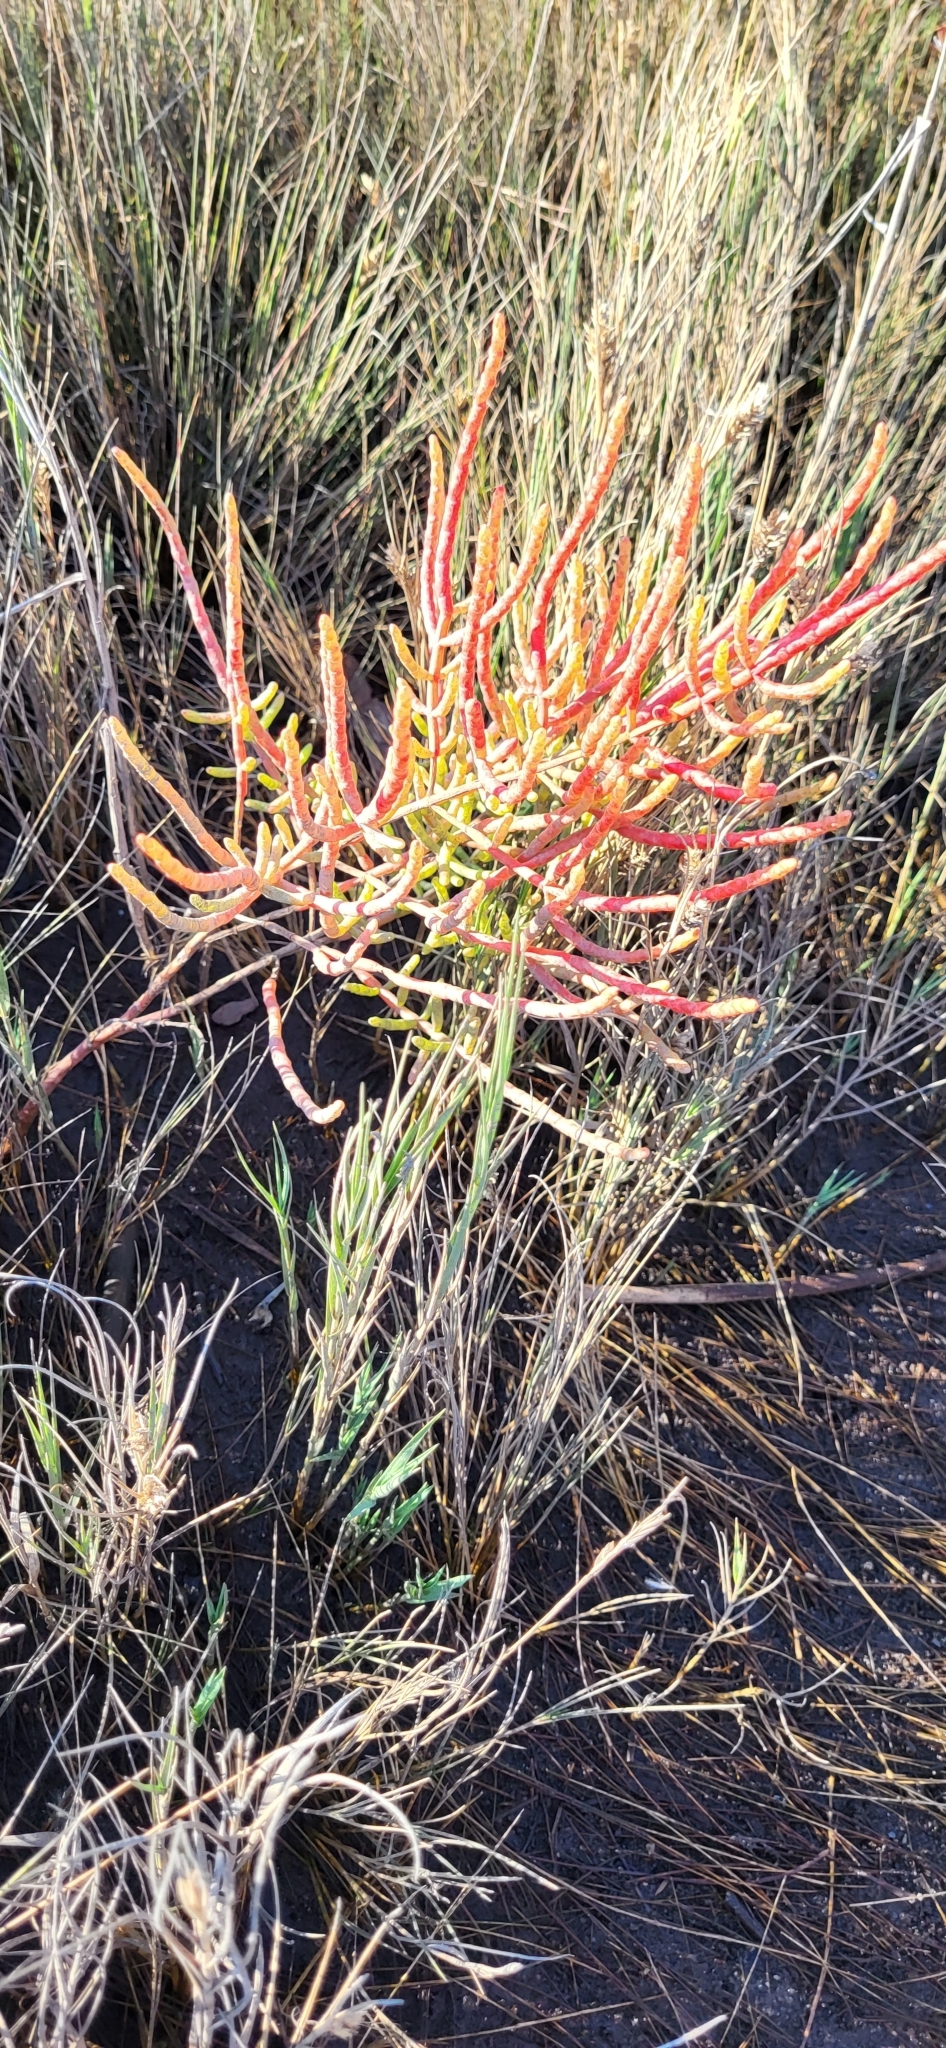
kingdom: Plantae
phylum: Tracheophyta
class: Magnoliopsida
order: Caryophyllales
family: Amaranthaceae
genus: Salicornia
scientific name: Salicornia virginica
